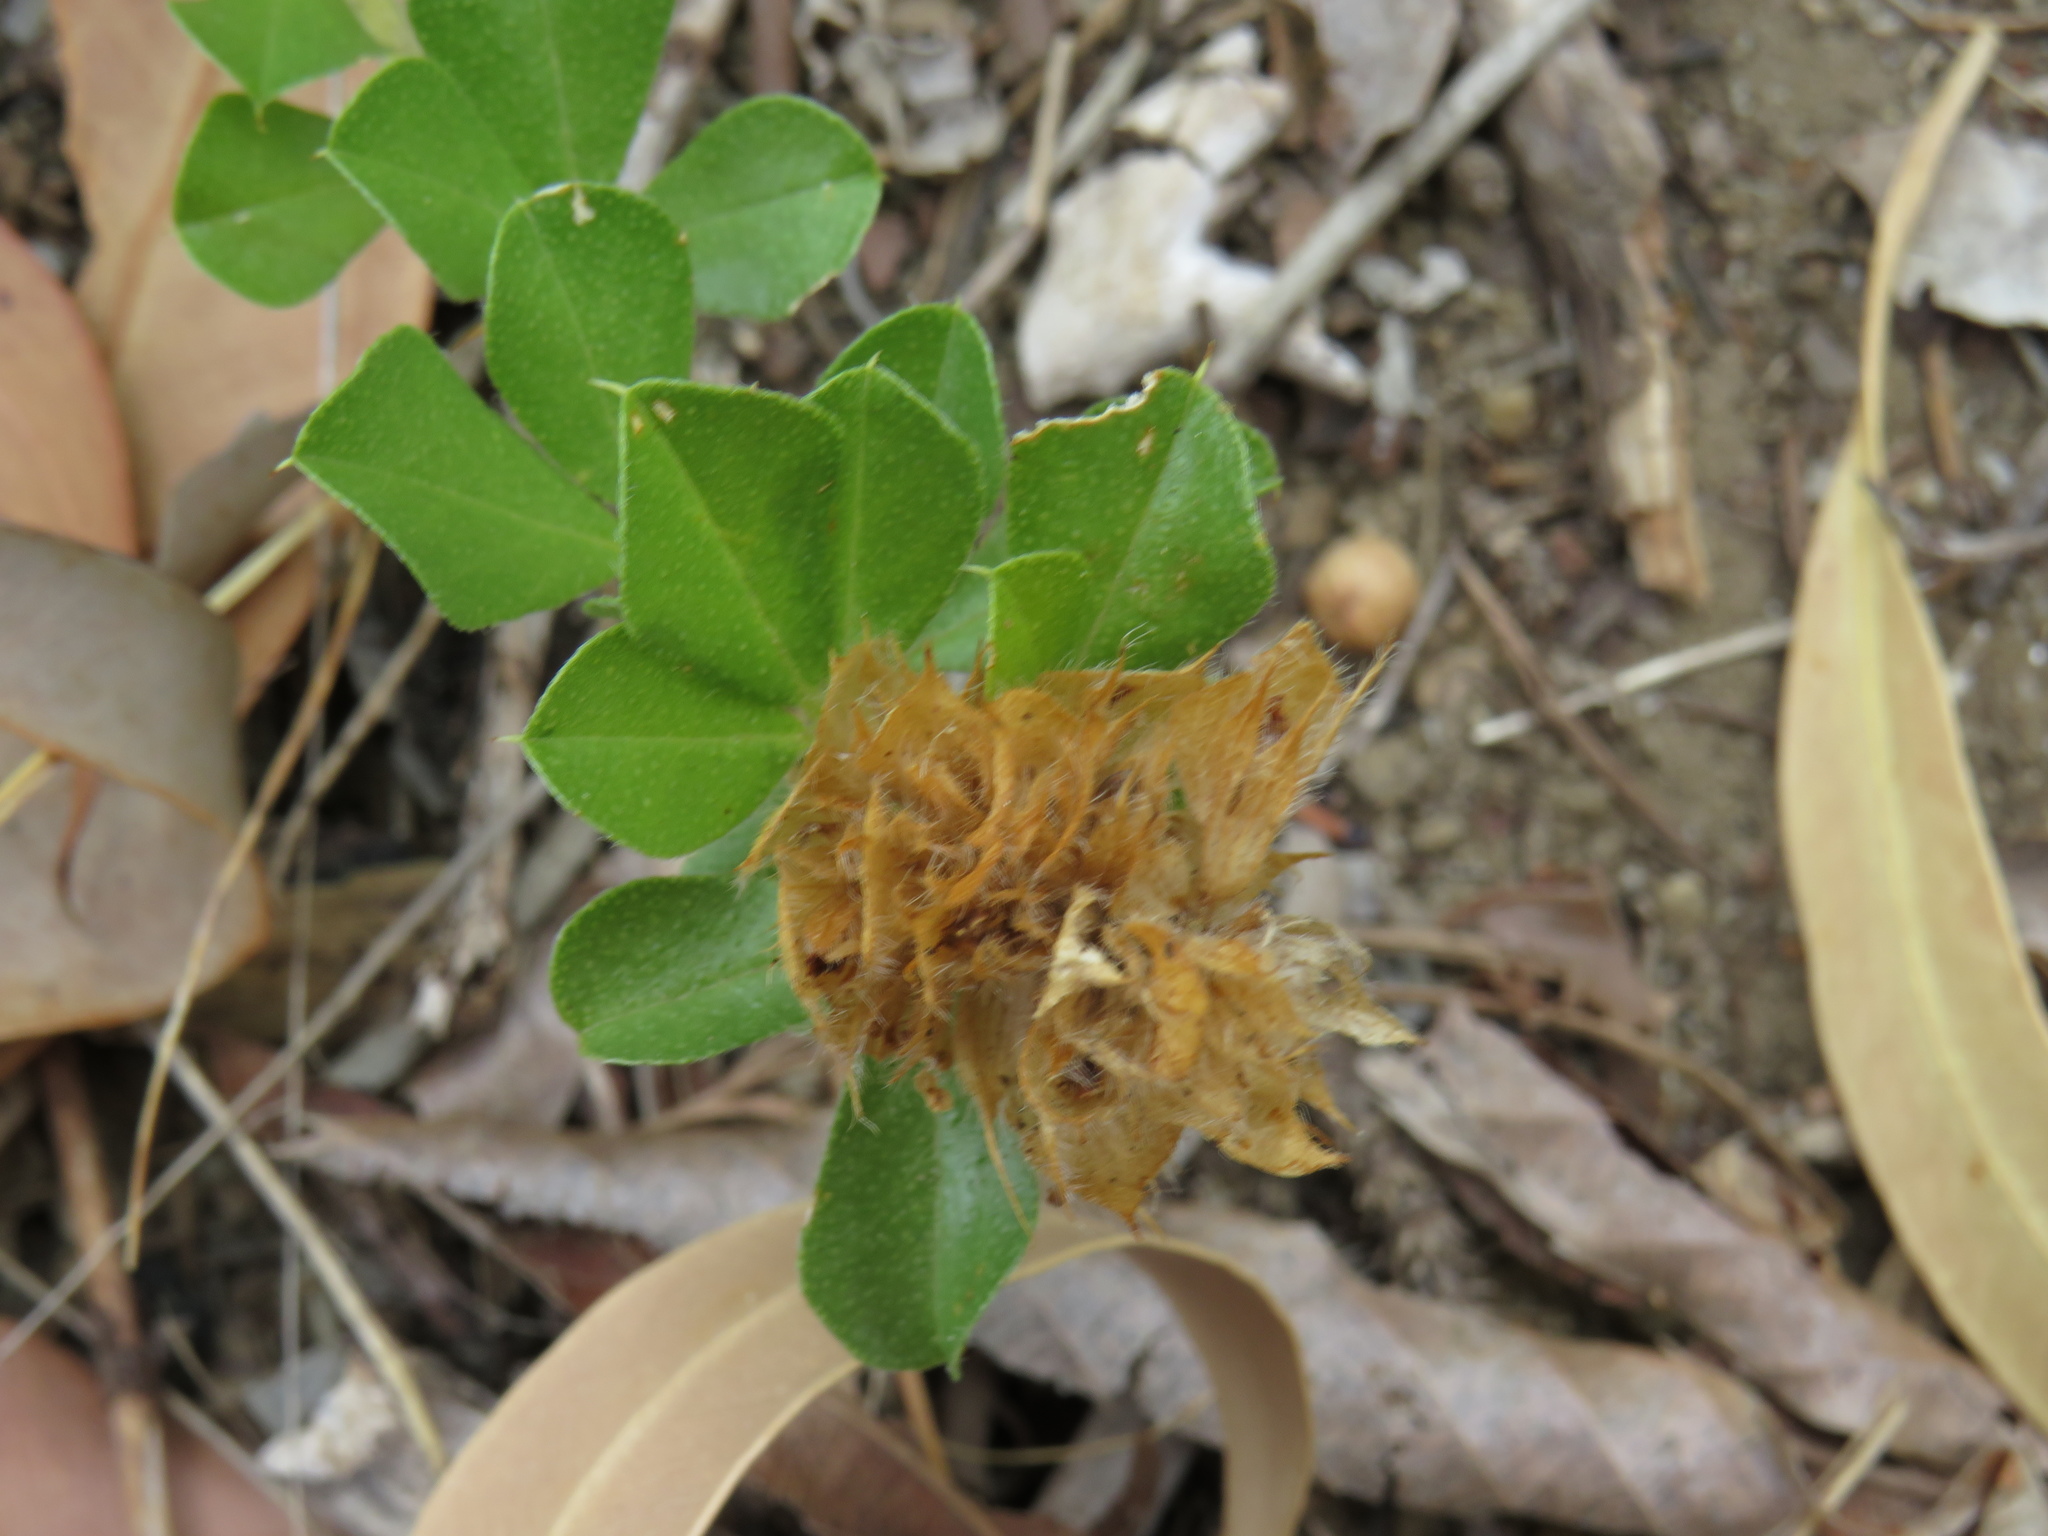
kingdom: Plantae
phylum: Tracheophyta
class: Magnoliopsida
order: Fabales
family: Fabaceae
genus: Psoralea
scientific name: Psoralea fruticans
